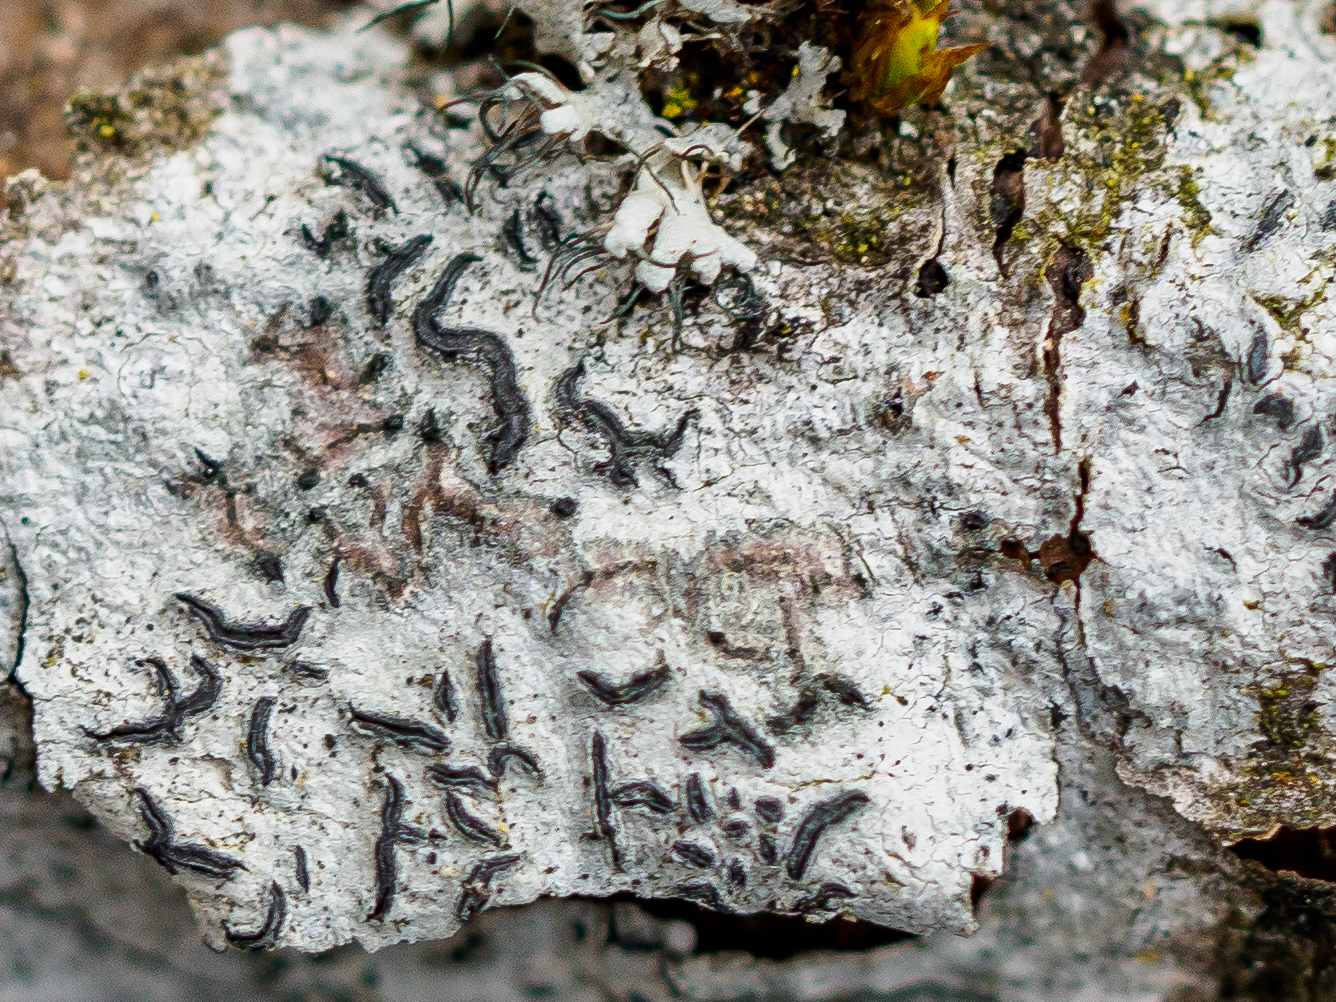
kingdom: Fungi
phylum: Ascomycota
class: Lecanoromycetes
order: Ostropales
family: Graphidaceae
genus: Graphis
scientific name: Graphis scripta
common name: Script lichen
